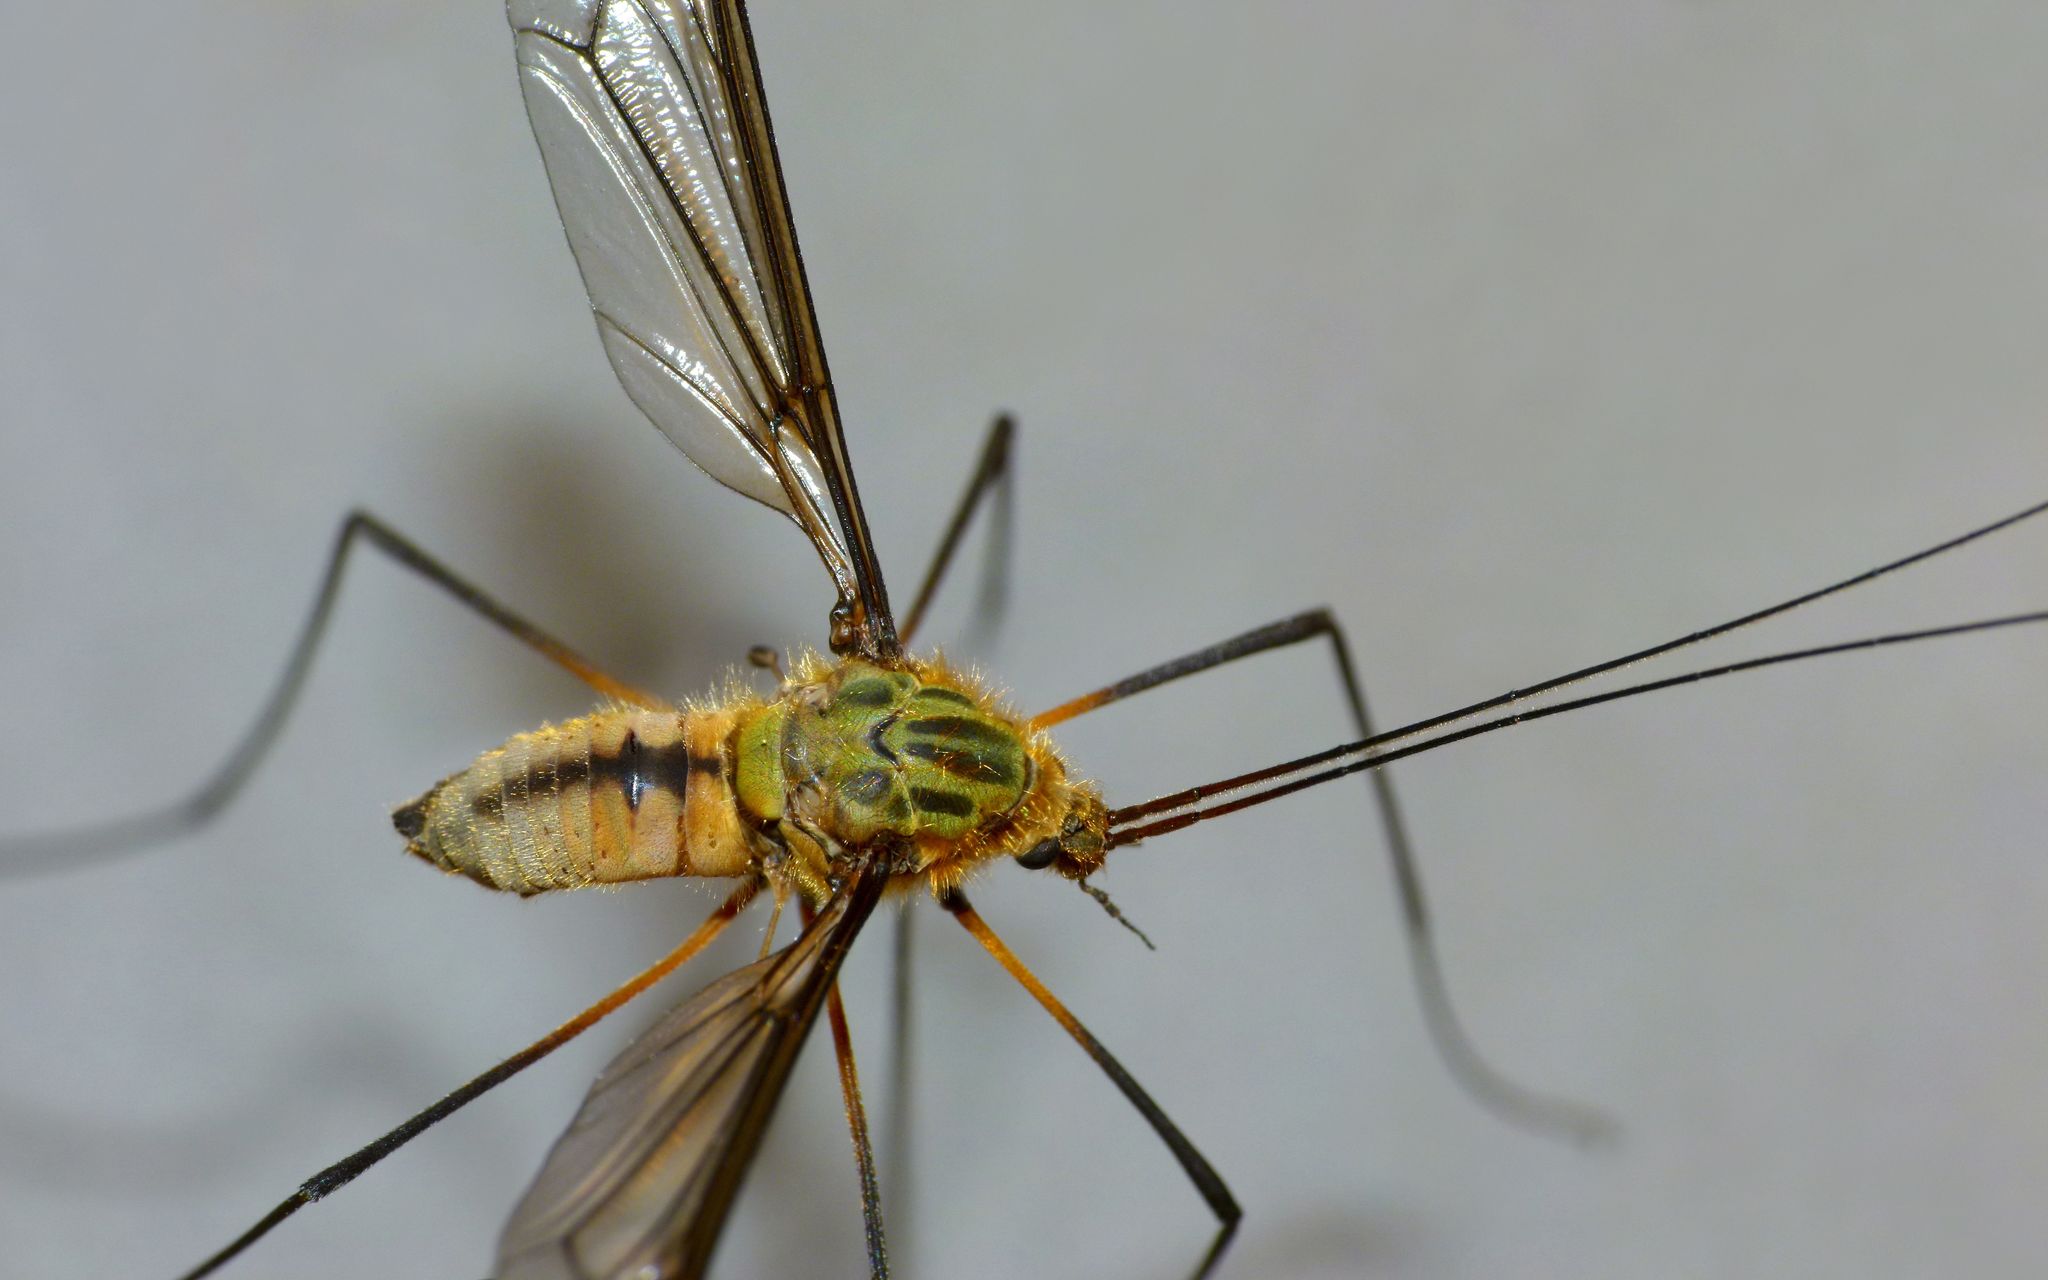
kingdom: Animalia
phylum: Arthropoda
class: Insecta
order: Diptera
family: Tipulidae
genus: Leptotarsus
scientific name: Leptotarsus vulpinus
